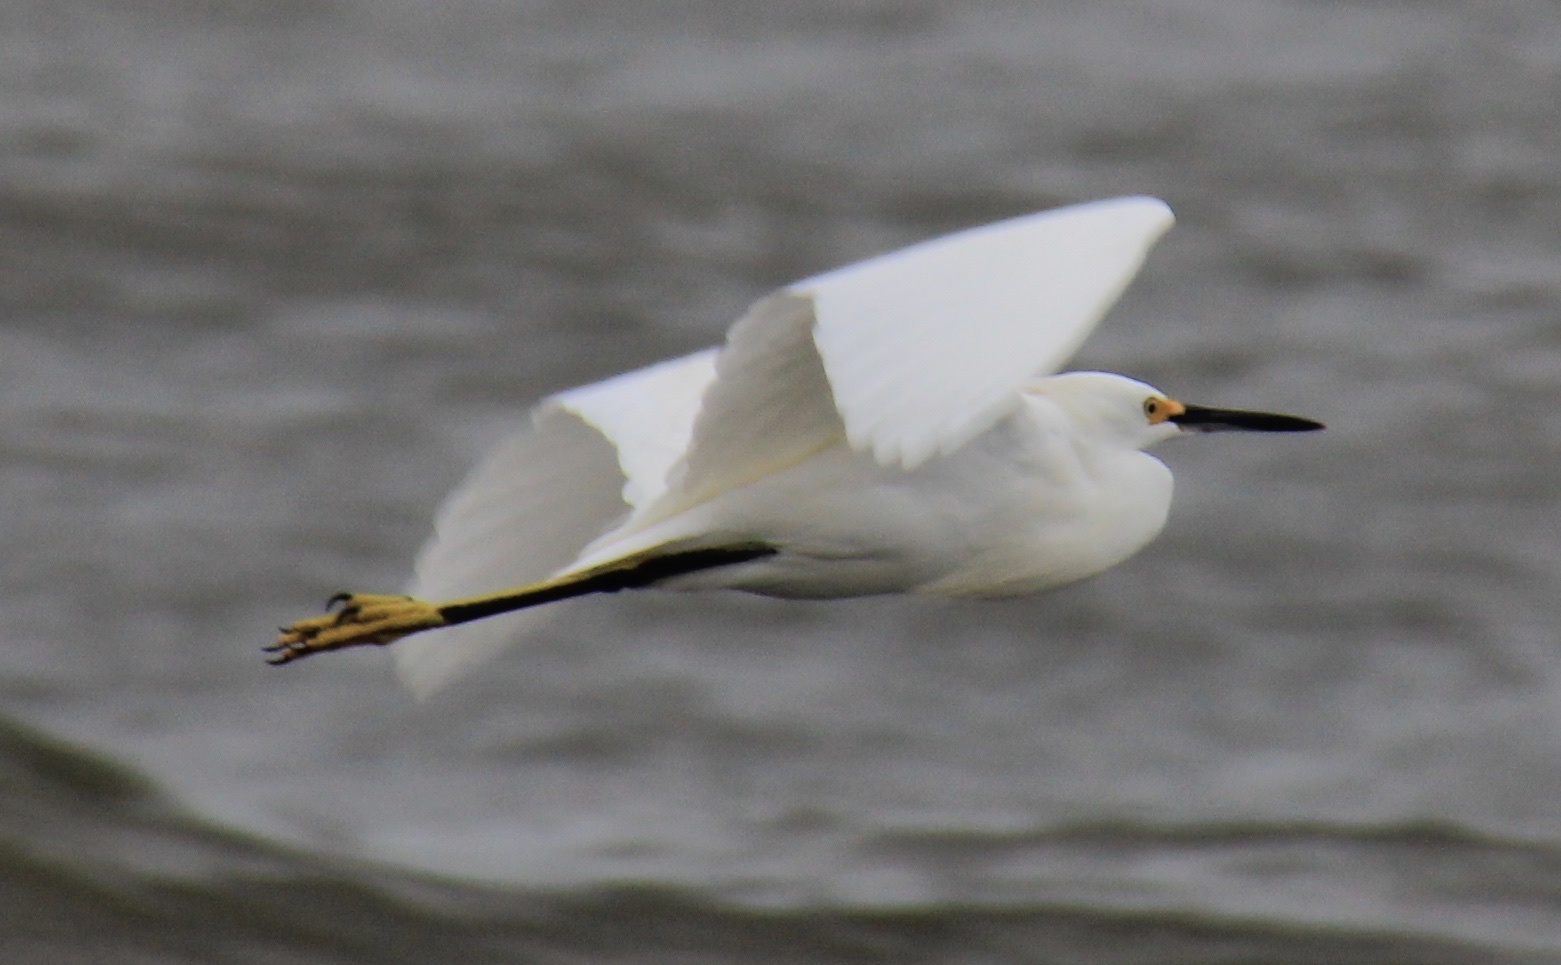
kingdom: Animalia
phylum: Chordata
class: Aves
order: Pelecaniformes
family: Ardeidae
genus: Egretta
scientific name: Egretta thula
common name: Snowy egret
